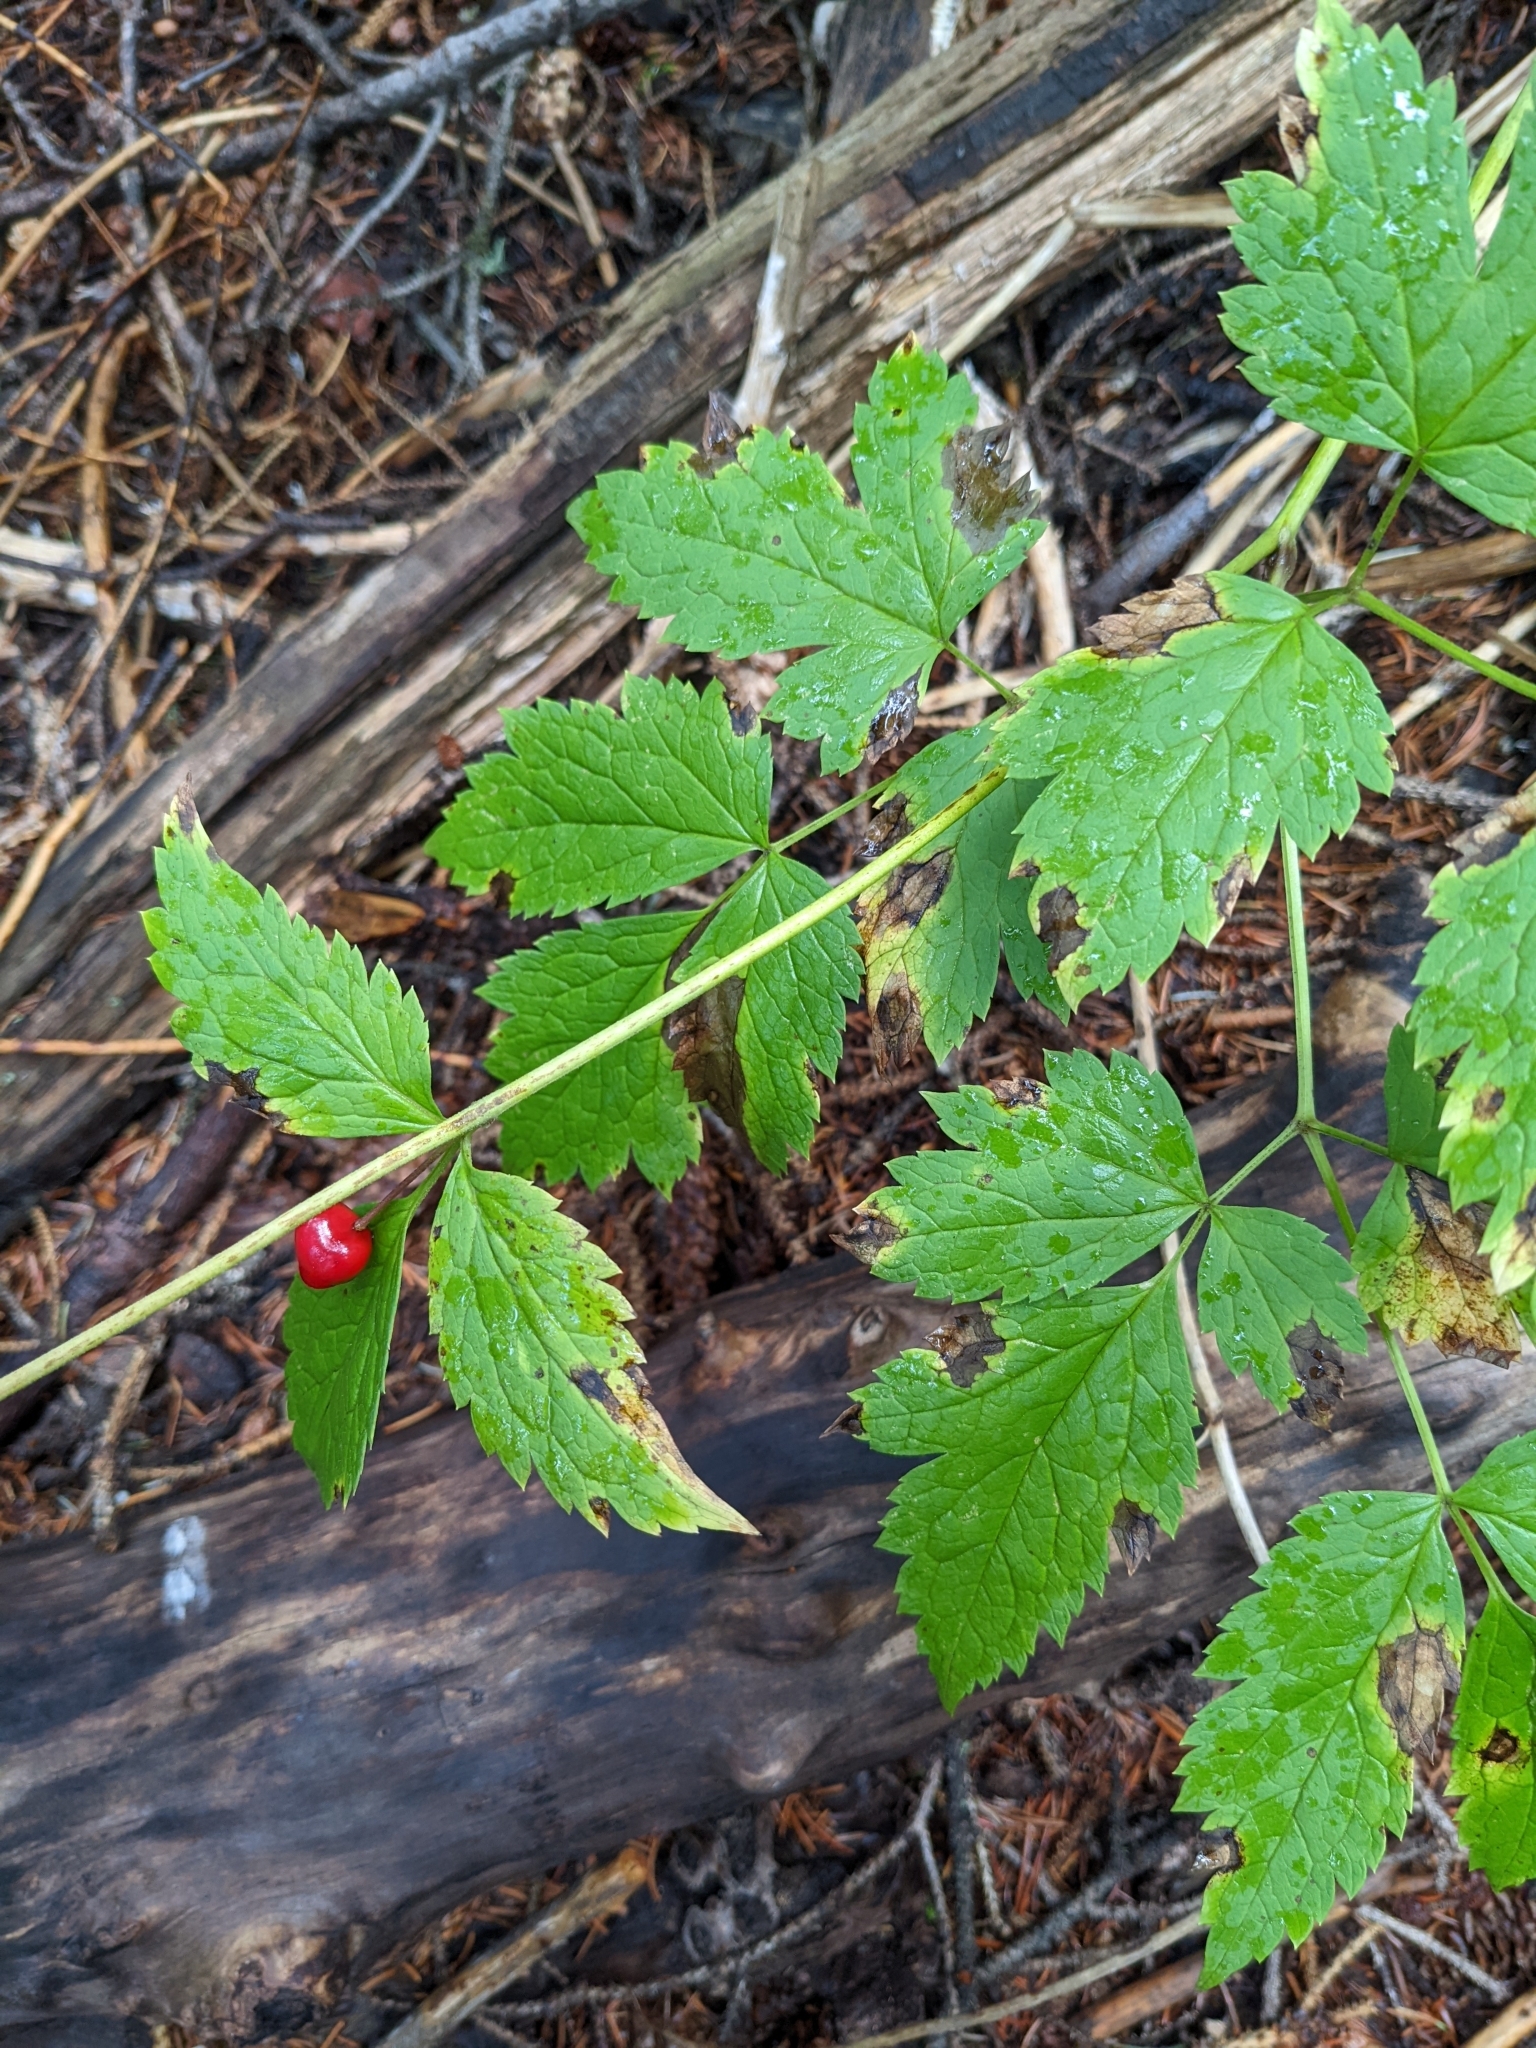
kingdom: Plantae
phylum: Tracheophyta
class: Magnoliopsida
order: Ranunculales
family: Ranunculaceae
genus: Actaea
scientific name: Actaea rubra
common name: Red baneberry
